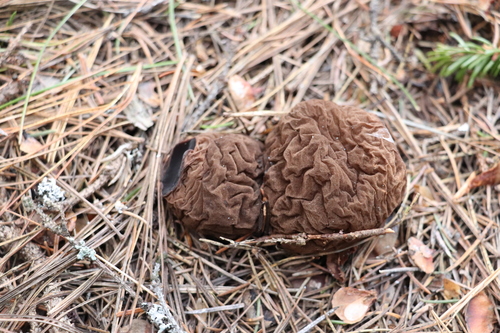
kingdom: Fungi
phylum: Ascomycota
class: Pezizomycetes
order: Pezizales
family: Sarcosomataceae
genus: Sarcosoma
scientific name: Sarcosoma globosum
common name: Charred-pancake cup
